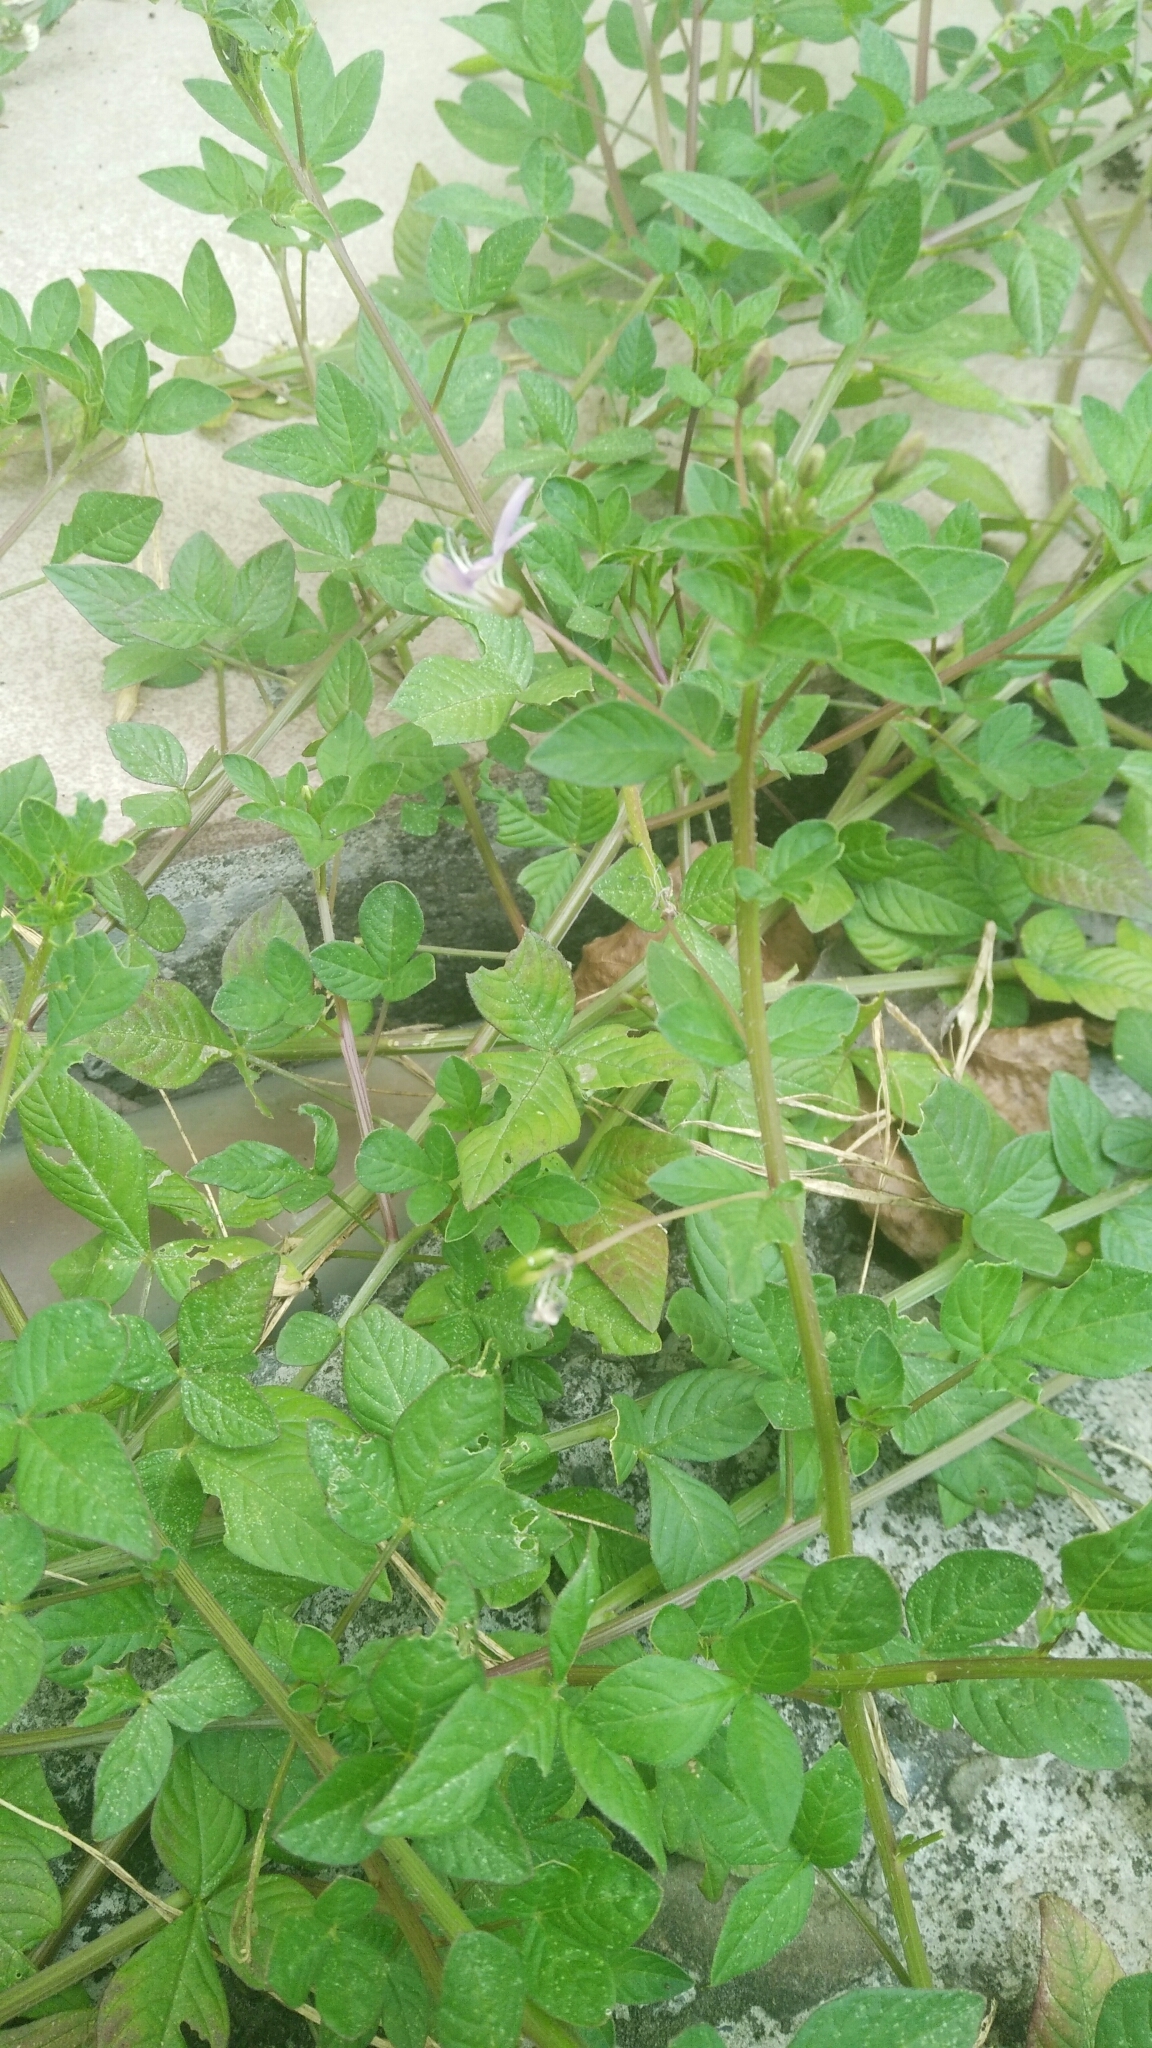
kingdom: Plantae
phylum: Tracheophyta
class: Magnoliopsida
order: Brassicales
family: Cleomaceae
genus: Sieruela
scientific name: Sieruela rutidosperma
